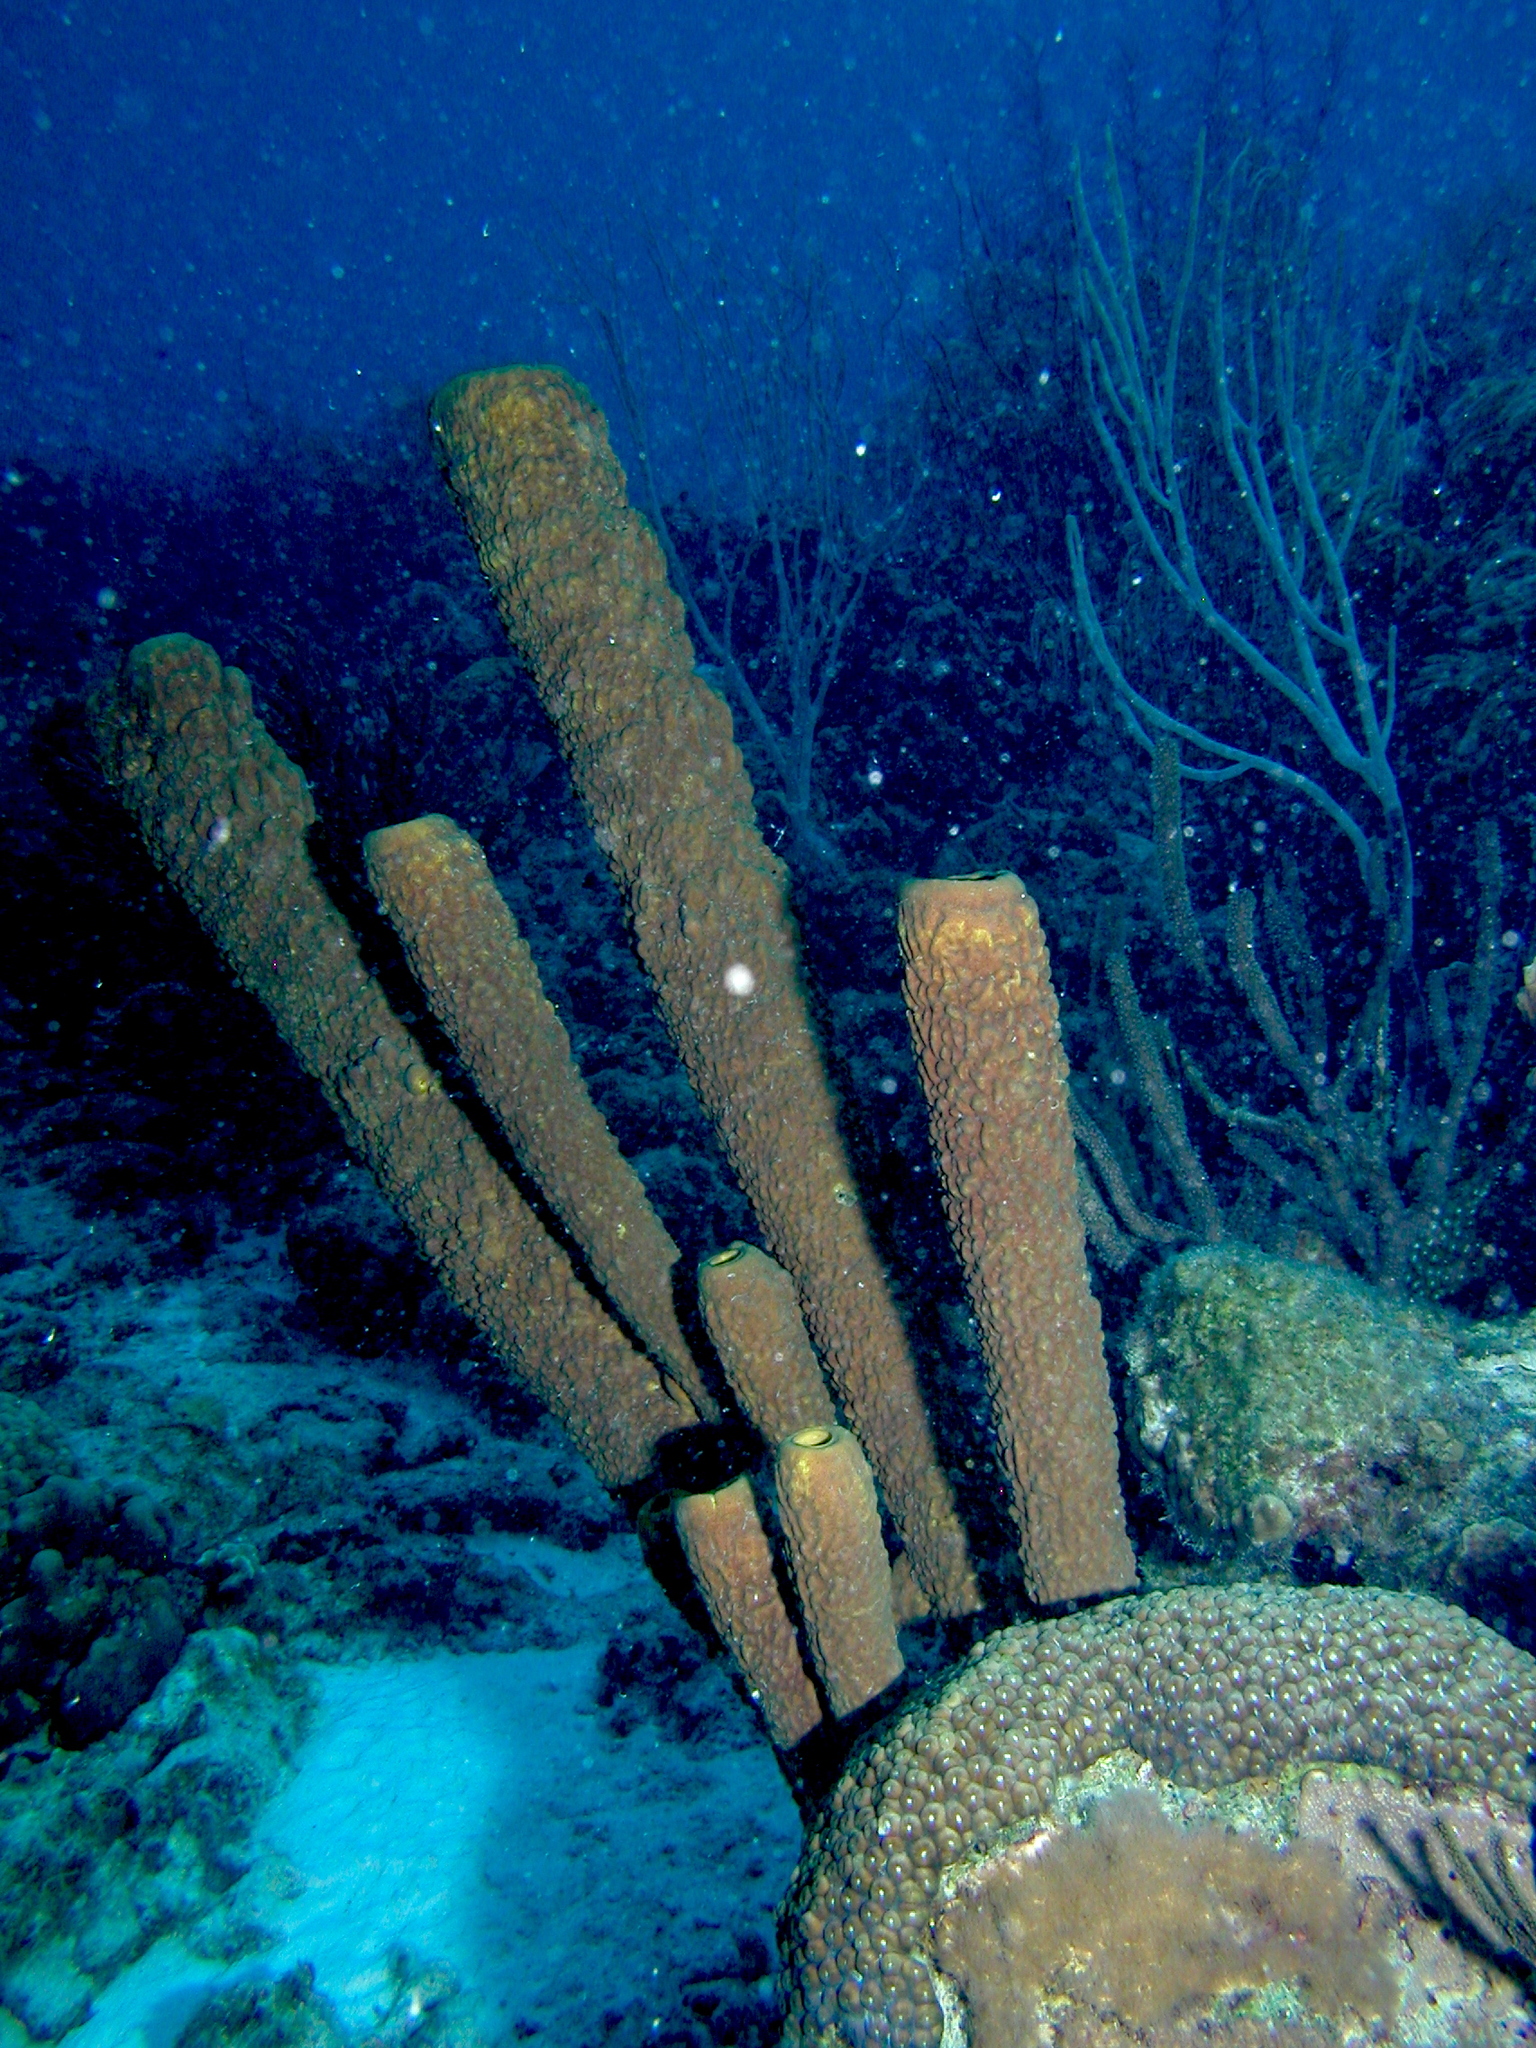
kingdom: Animalia
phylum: Porifera
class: Demospongiae
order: Verongiida
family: Aplysinidae
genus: Aplysina
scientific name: Aplysina archeri
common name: Stove-pipe sponge
